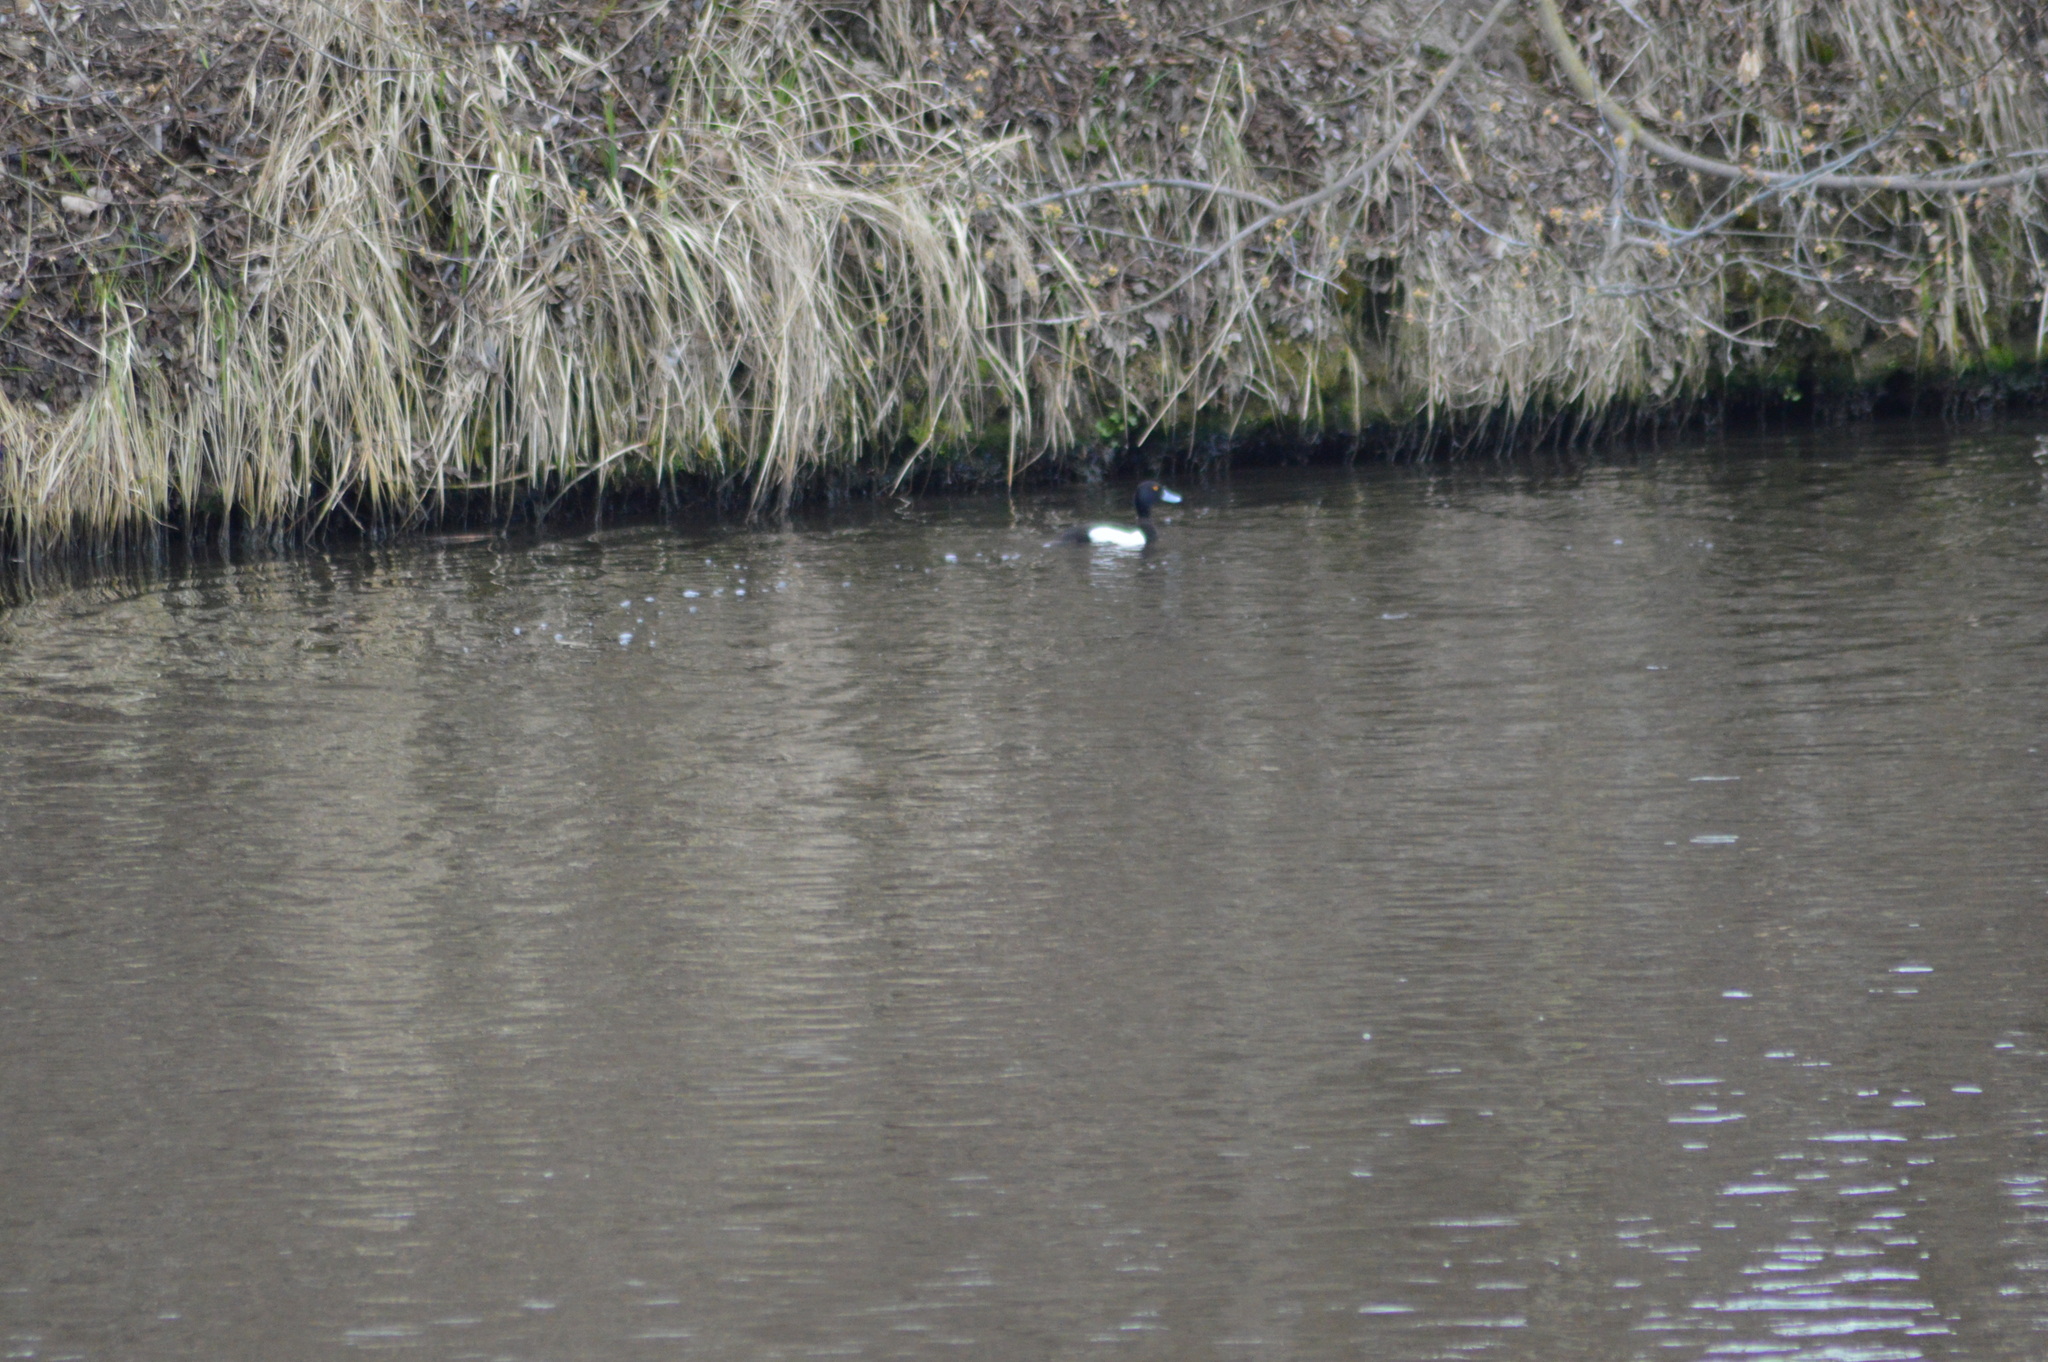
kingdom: Animalia
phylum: Chordata
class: Aves
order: Anseriformes
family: Anatidae
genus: Aythya
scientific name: Aythya fuligula
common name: Tufted duck
